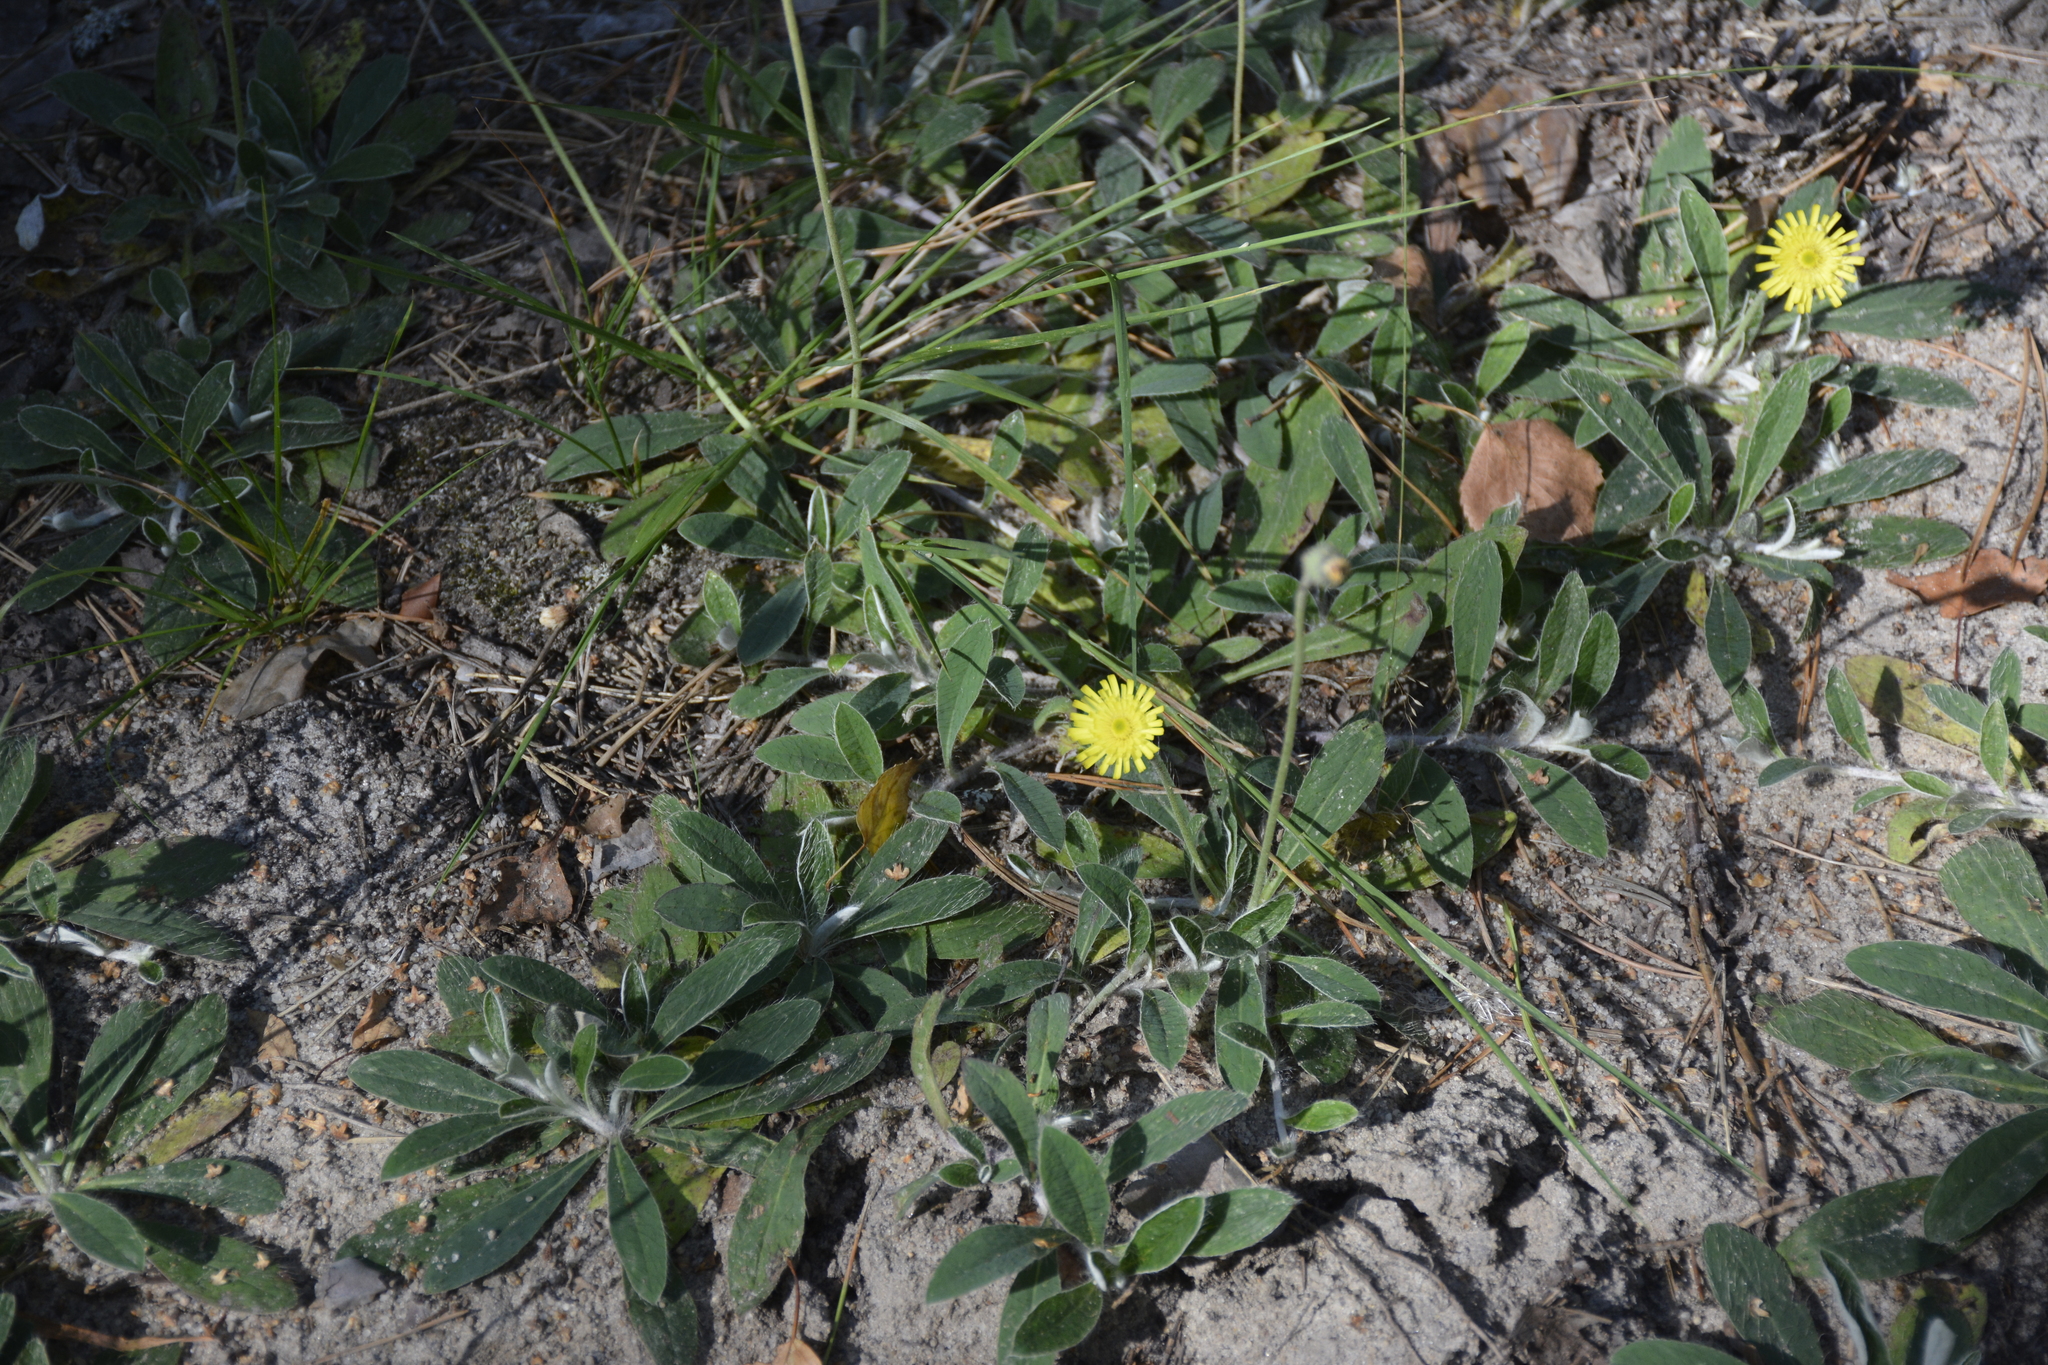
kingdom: Plantae
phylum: Tracheophyta
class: Magnoliopsida
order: Asterales
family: Asteraceae
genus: Pilosella
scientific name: Pilosella officinarum
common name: Mouse-ear hawkweed
